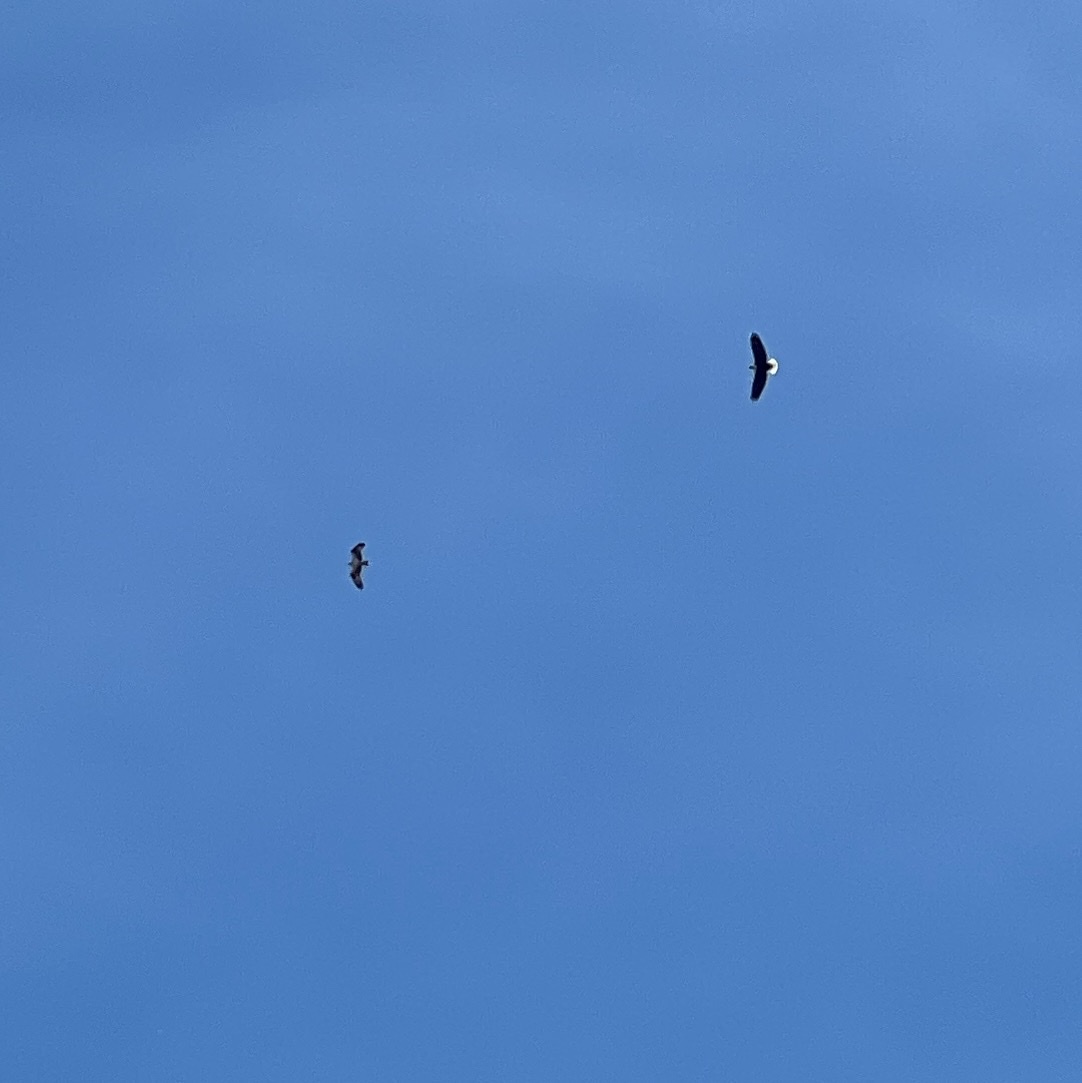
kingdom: Animalia
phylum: Chordata
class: Aves
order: Accipitriformes
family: Pandionidae
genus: Pandion
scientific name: Pandion haliaetus
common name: Osprey
